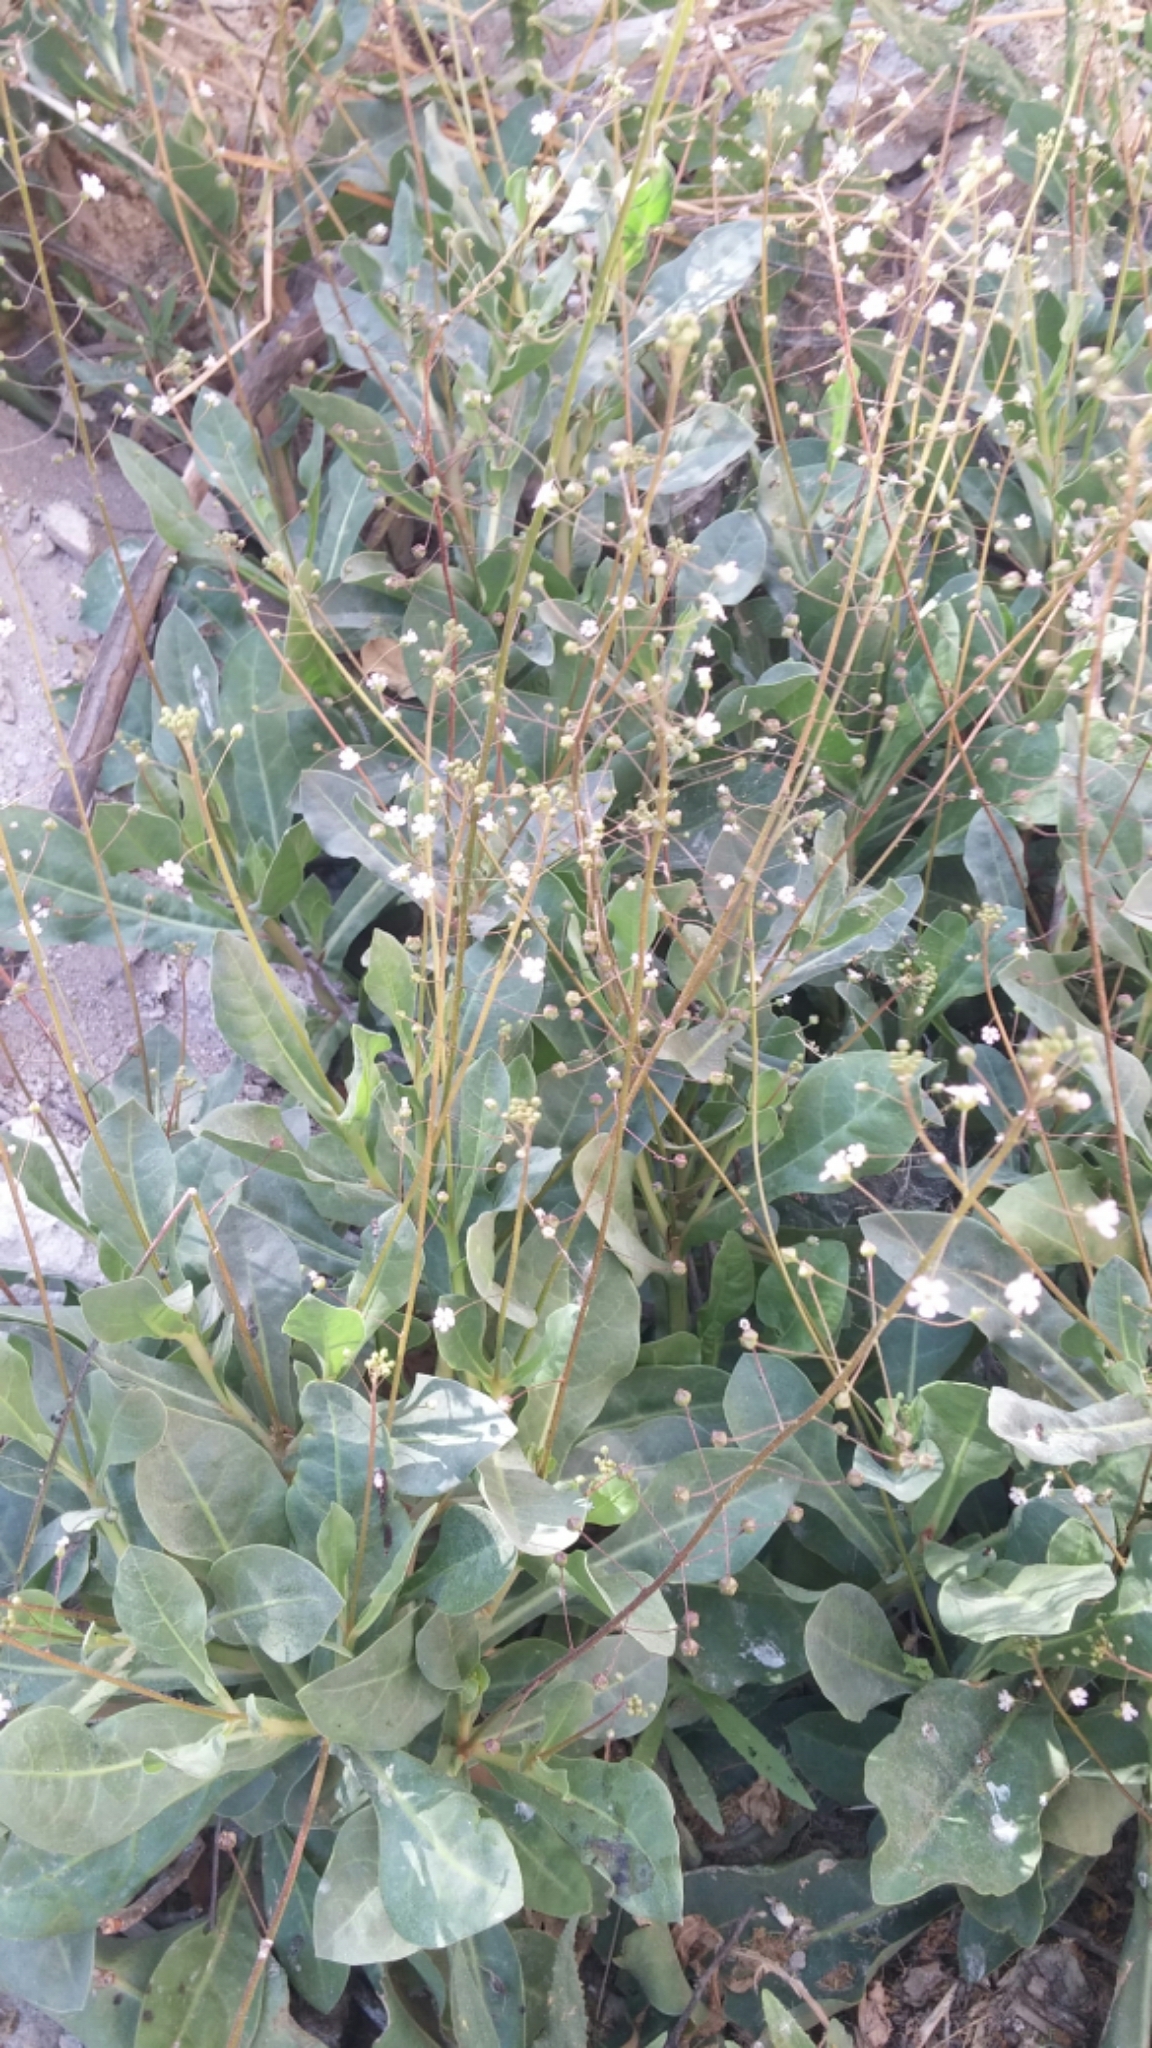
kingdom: Plantae
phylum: Tracheophyta
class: Magnoliopsida
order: Ericales
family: Primulaceae
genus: Samolus
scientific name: Samolus ebracteatus
